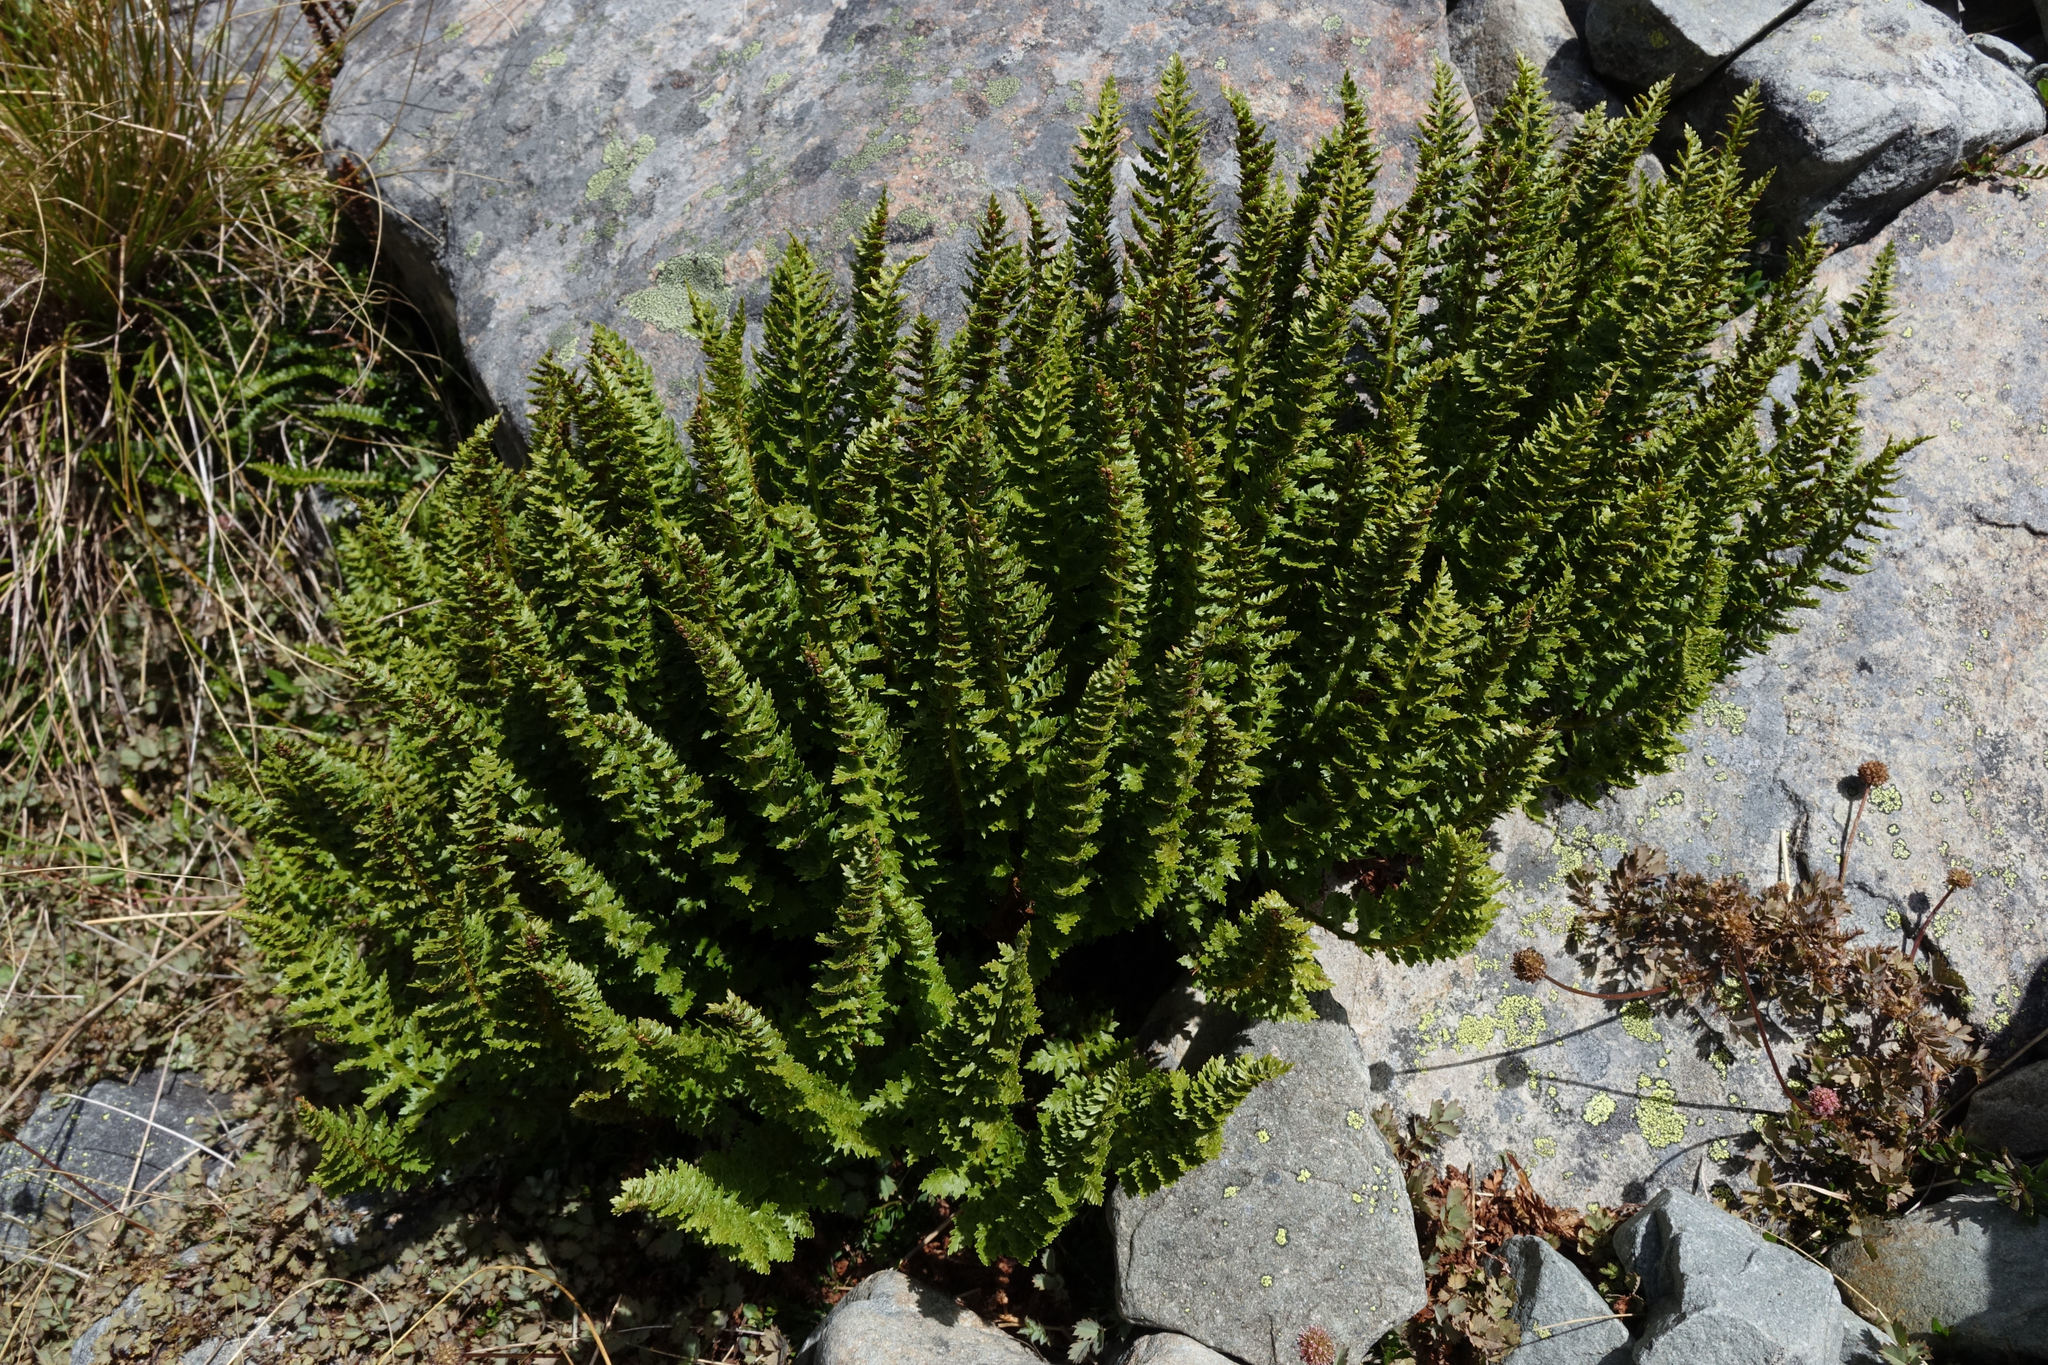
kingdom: Plantae
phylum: Tracheophyta
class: Polypodiopsida
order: Polypodiales
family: Dryopteridaceae
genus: Polystichum
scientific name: Polystichum cystostegia
